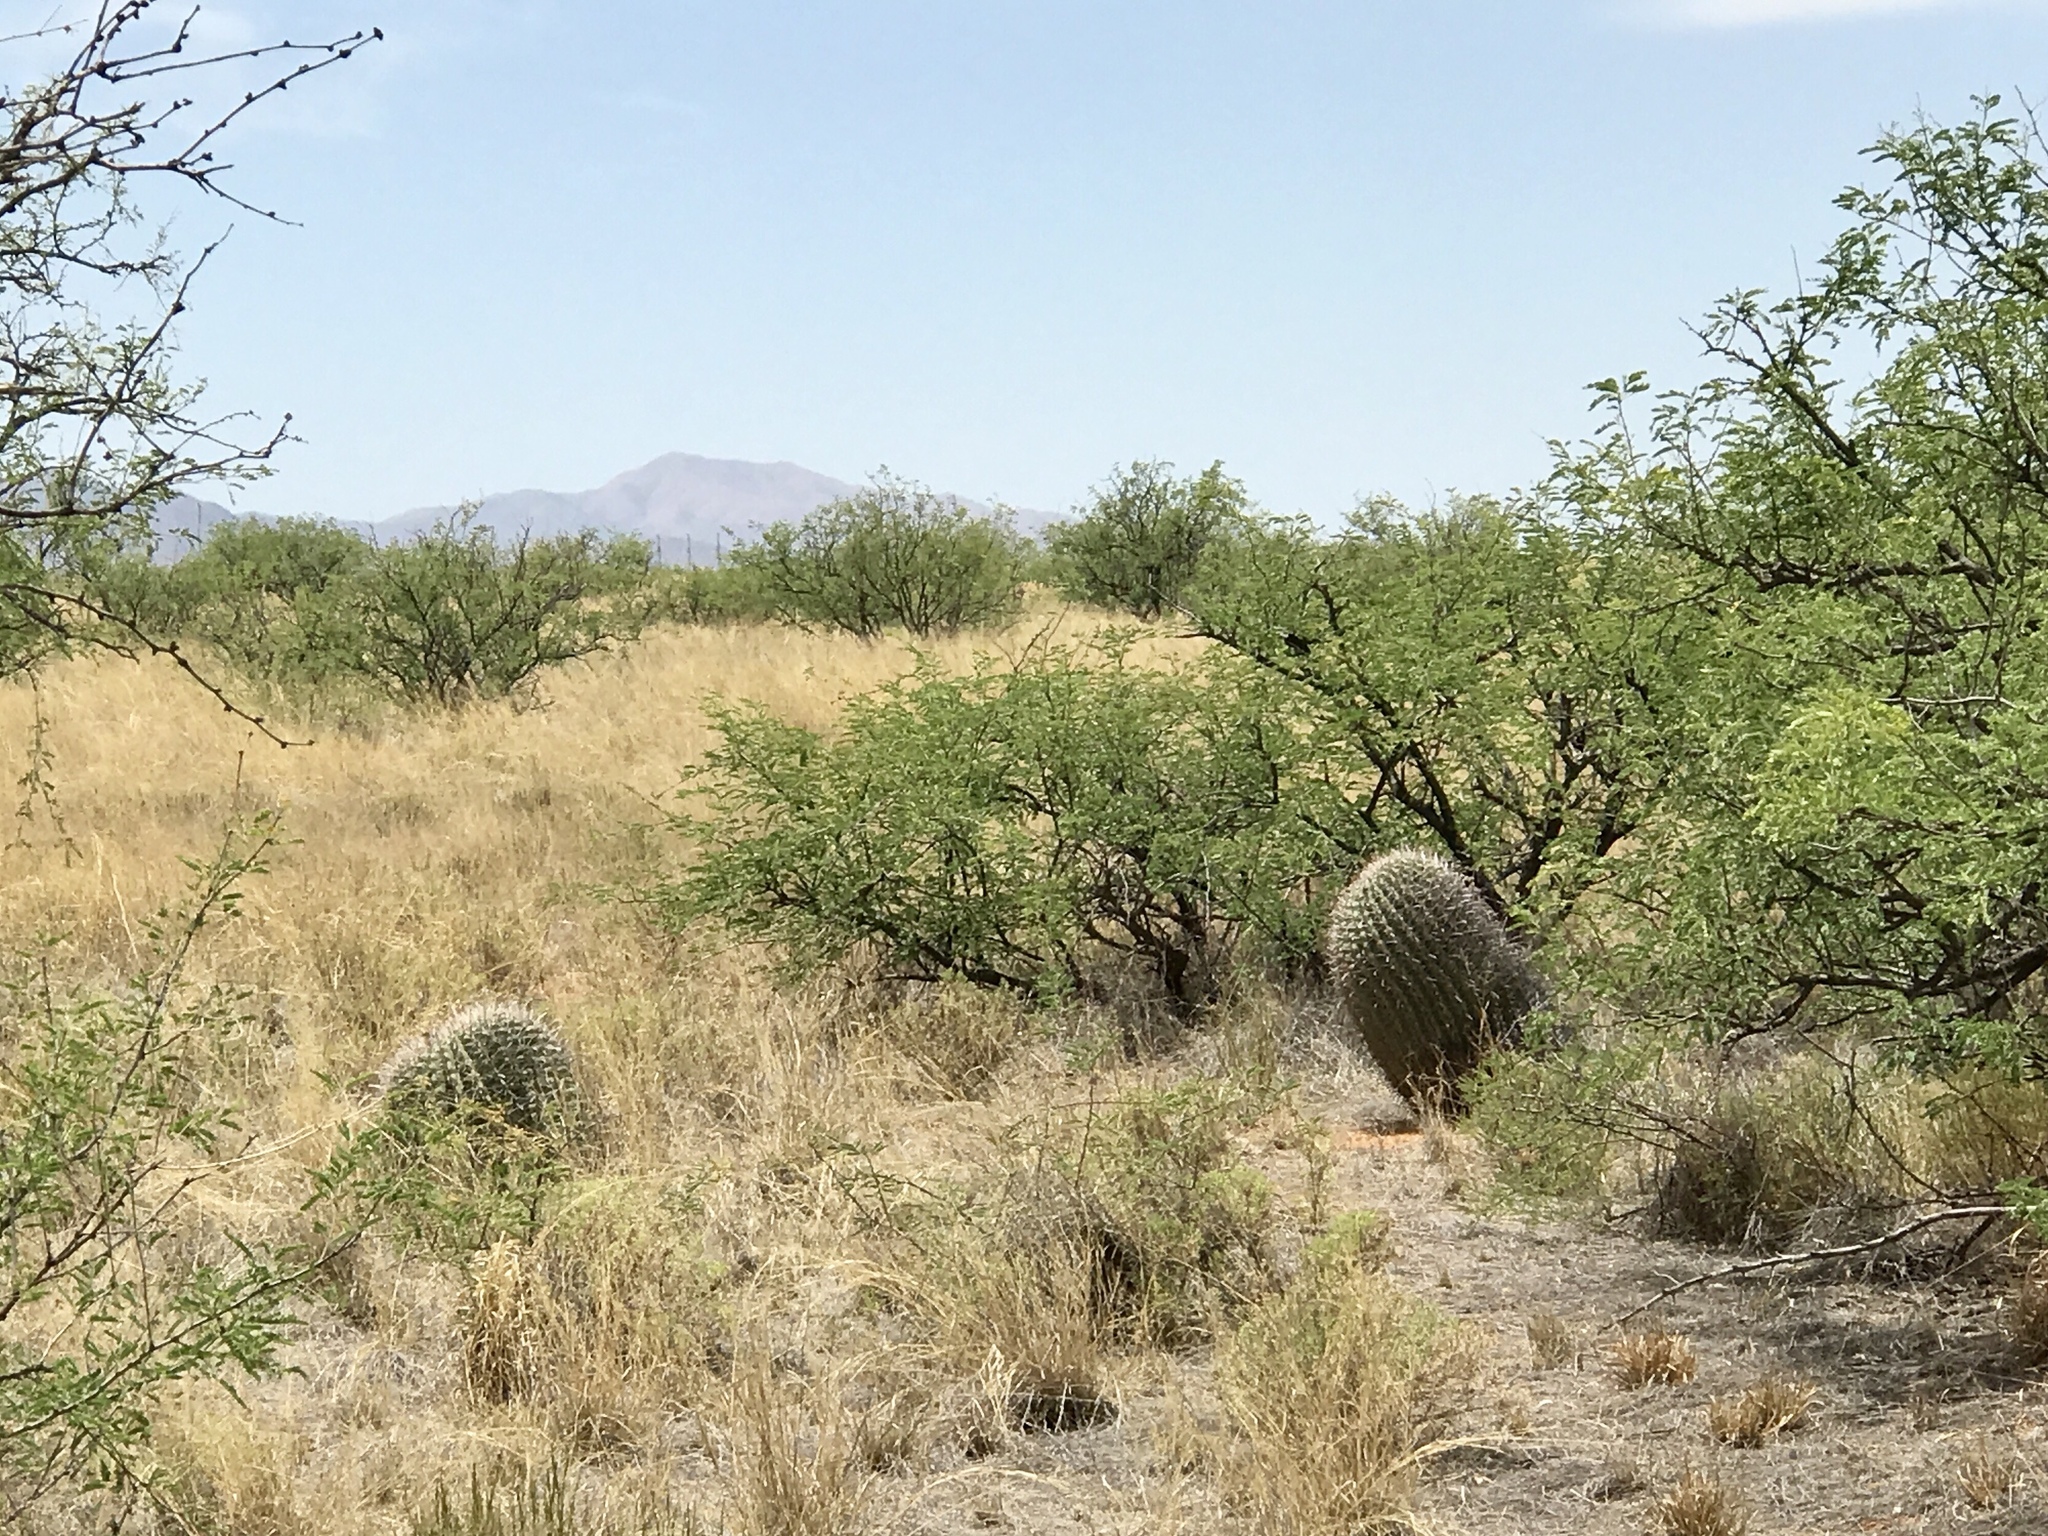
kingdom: Plantae
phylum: Tracheophyta
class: Magnoliopsida
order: Caryophyllales
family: Cactaceae
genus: Ferocactus
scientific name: Ferocactus wislizeni
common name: Candy barrel cactus
